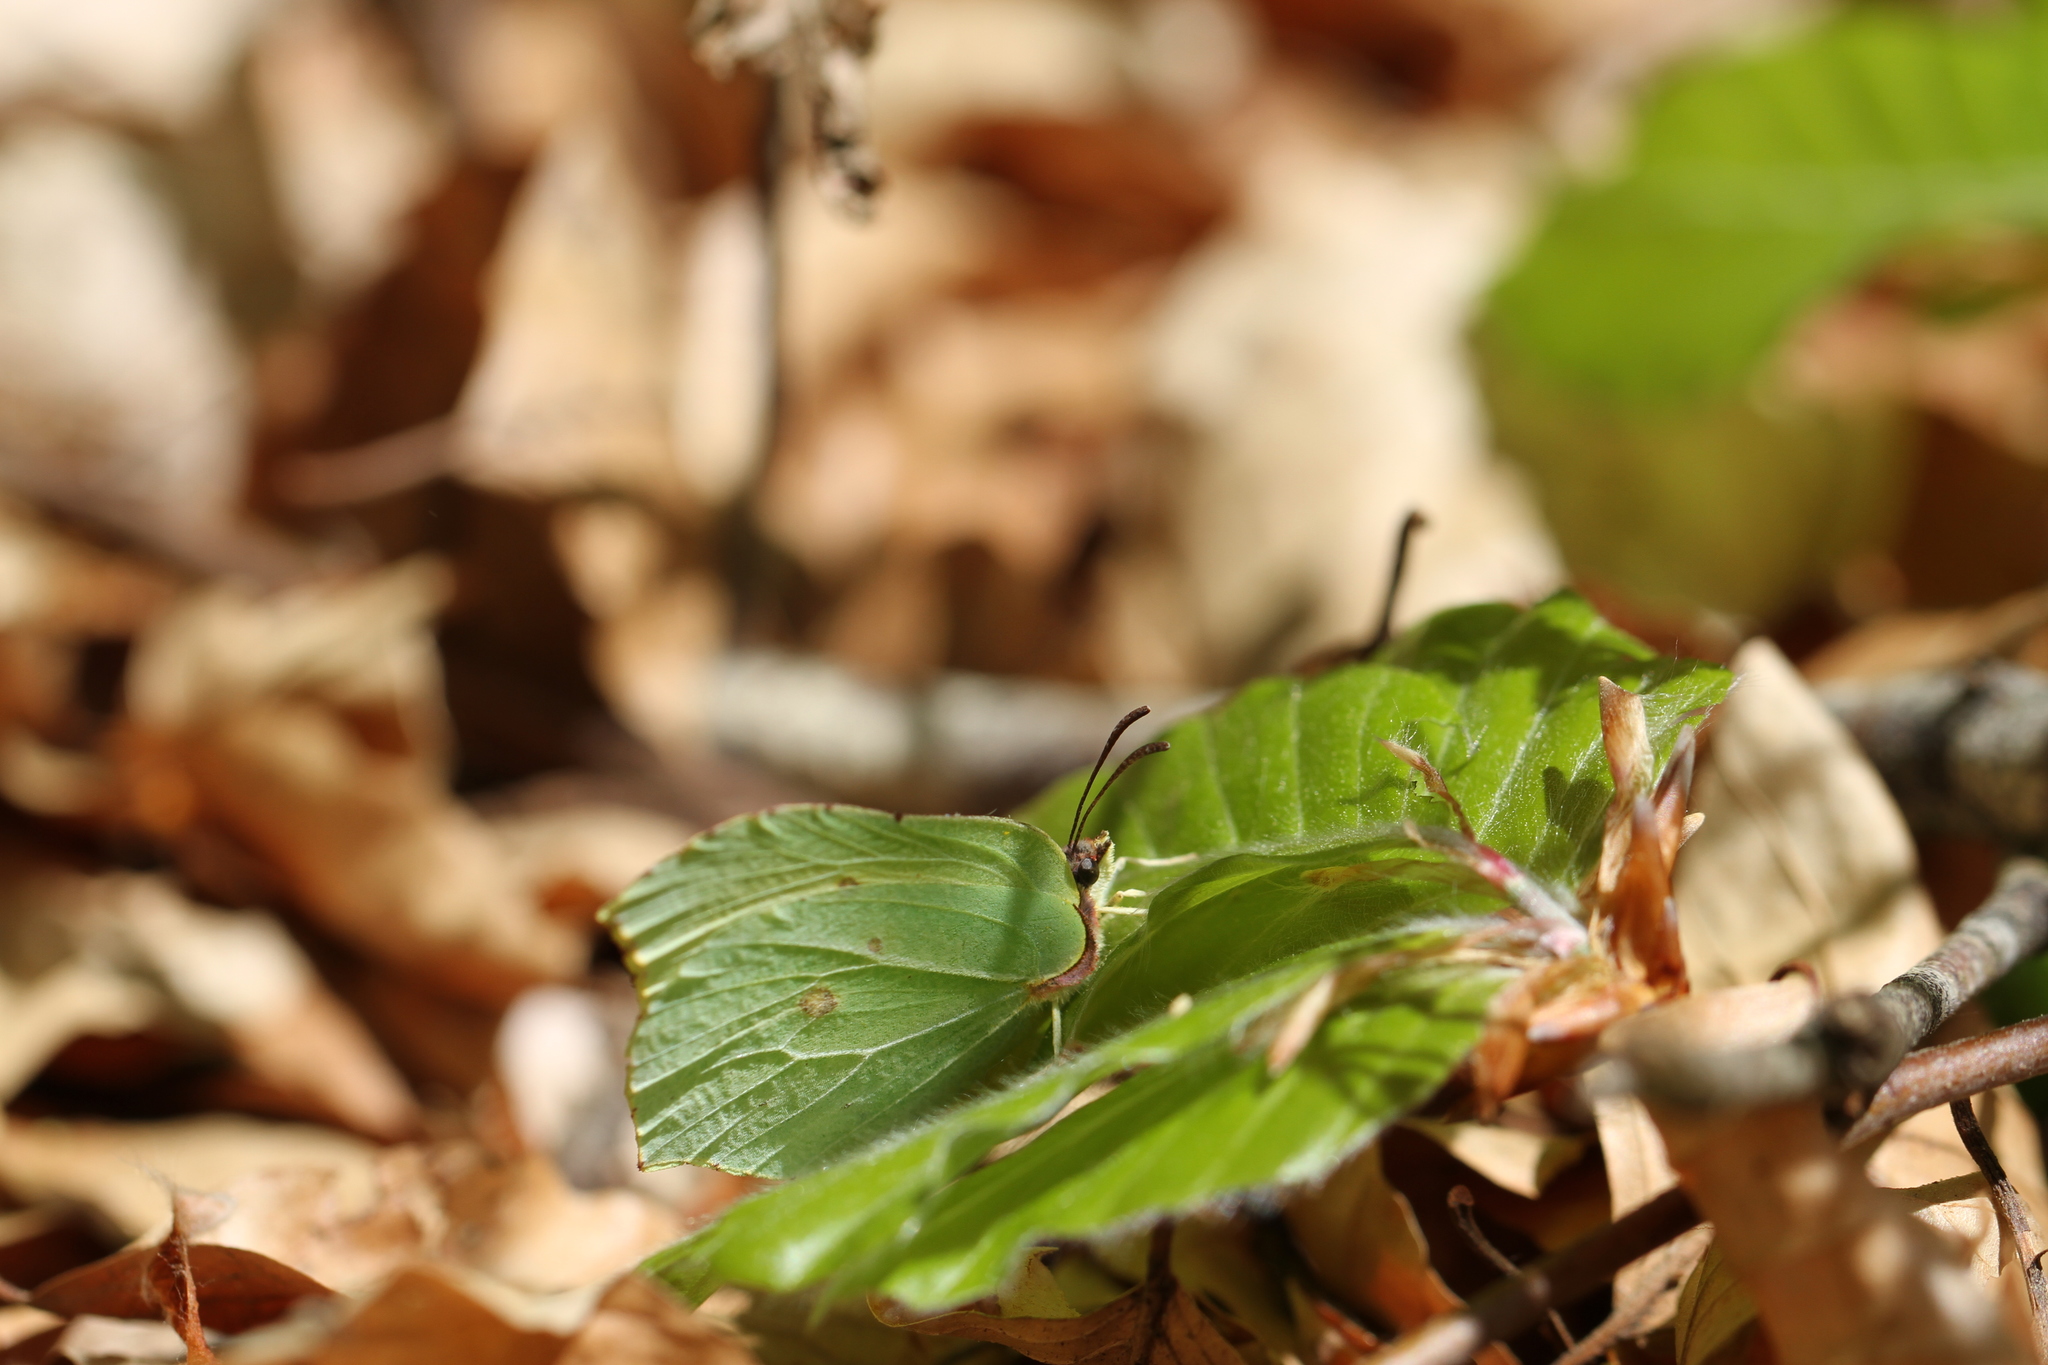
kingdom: Animalia
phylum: Arthropoda
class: Insecta
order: Lepidoptera
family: Pieridae
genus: Gonepteryx
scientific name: Gonepteryx rhamni
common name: Brimstone
